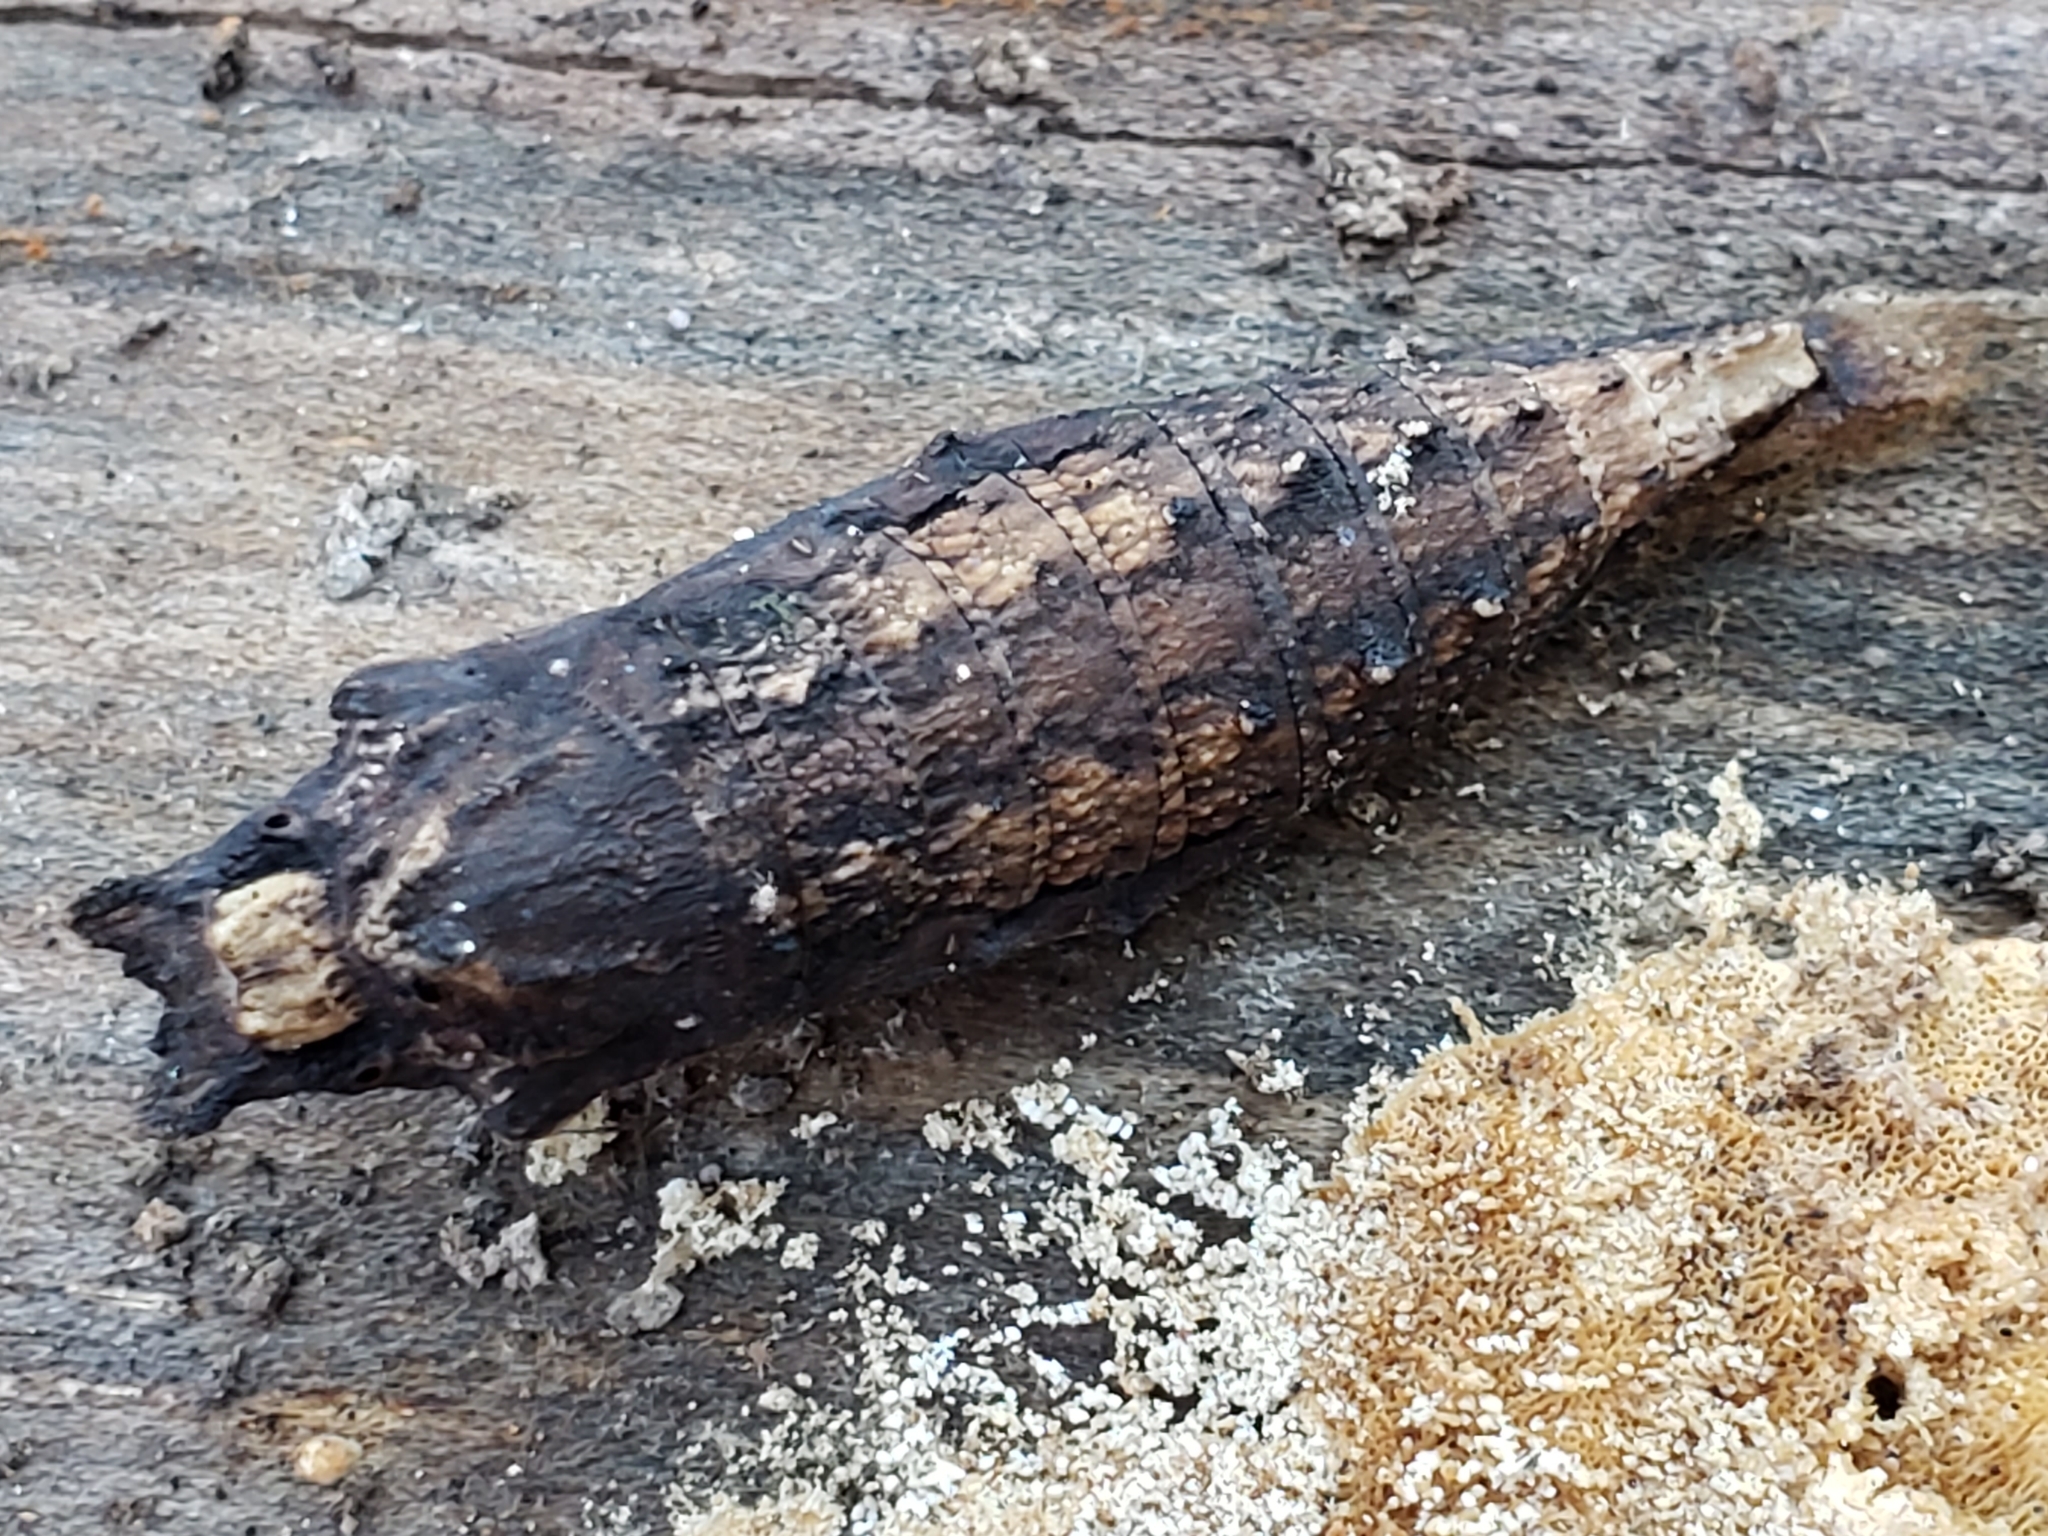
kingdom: Animalia
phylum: Arthropoda
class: Insecta
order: Lepidoptera
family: Papilionidae
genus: Papilio
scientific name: Papilio glaucus
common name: Tiger swallowtail
